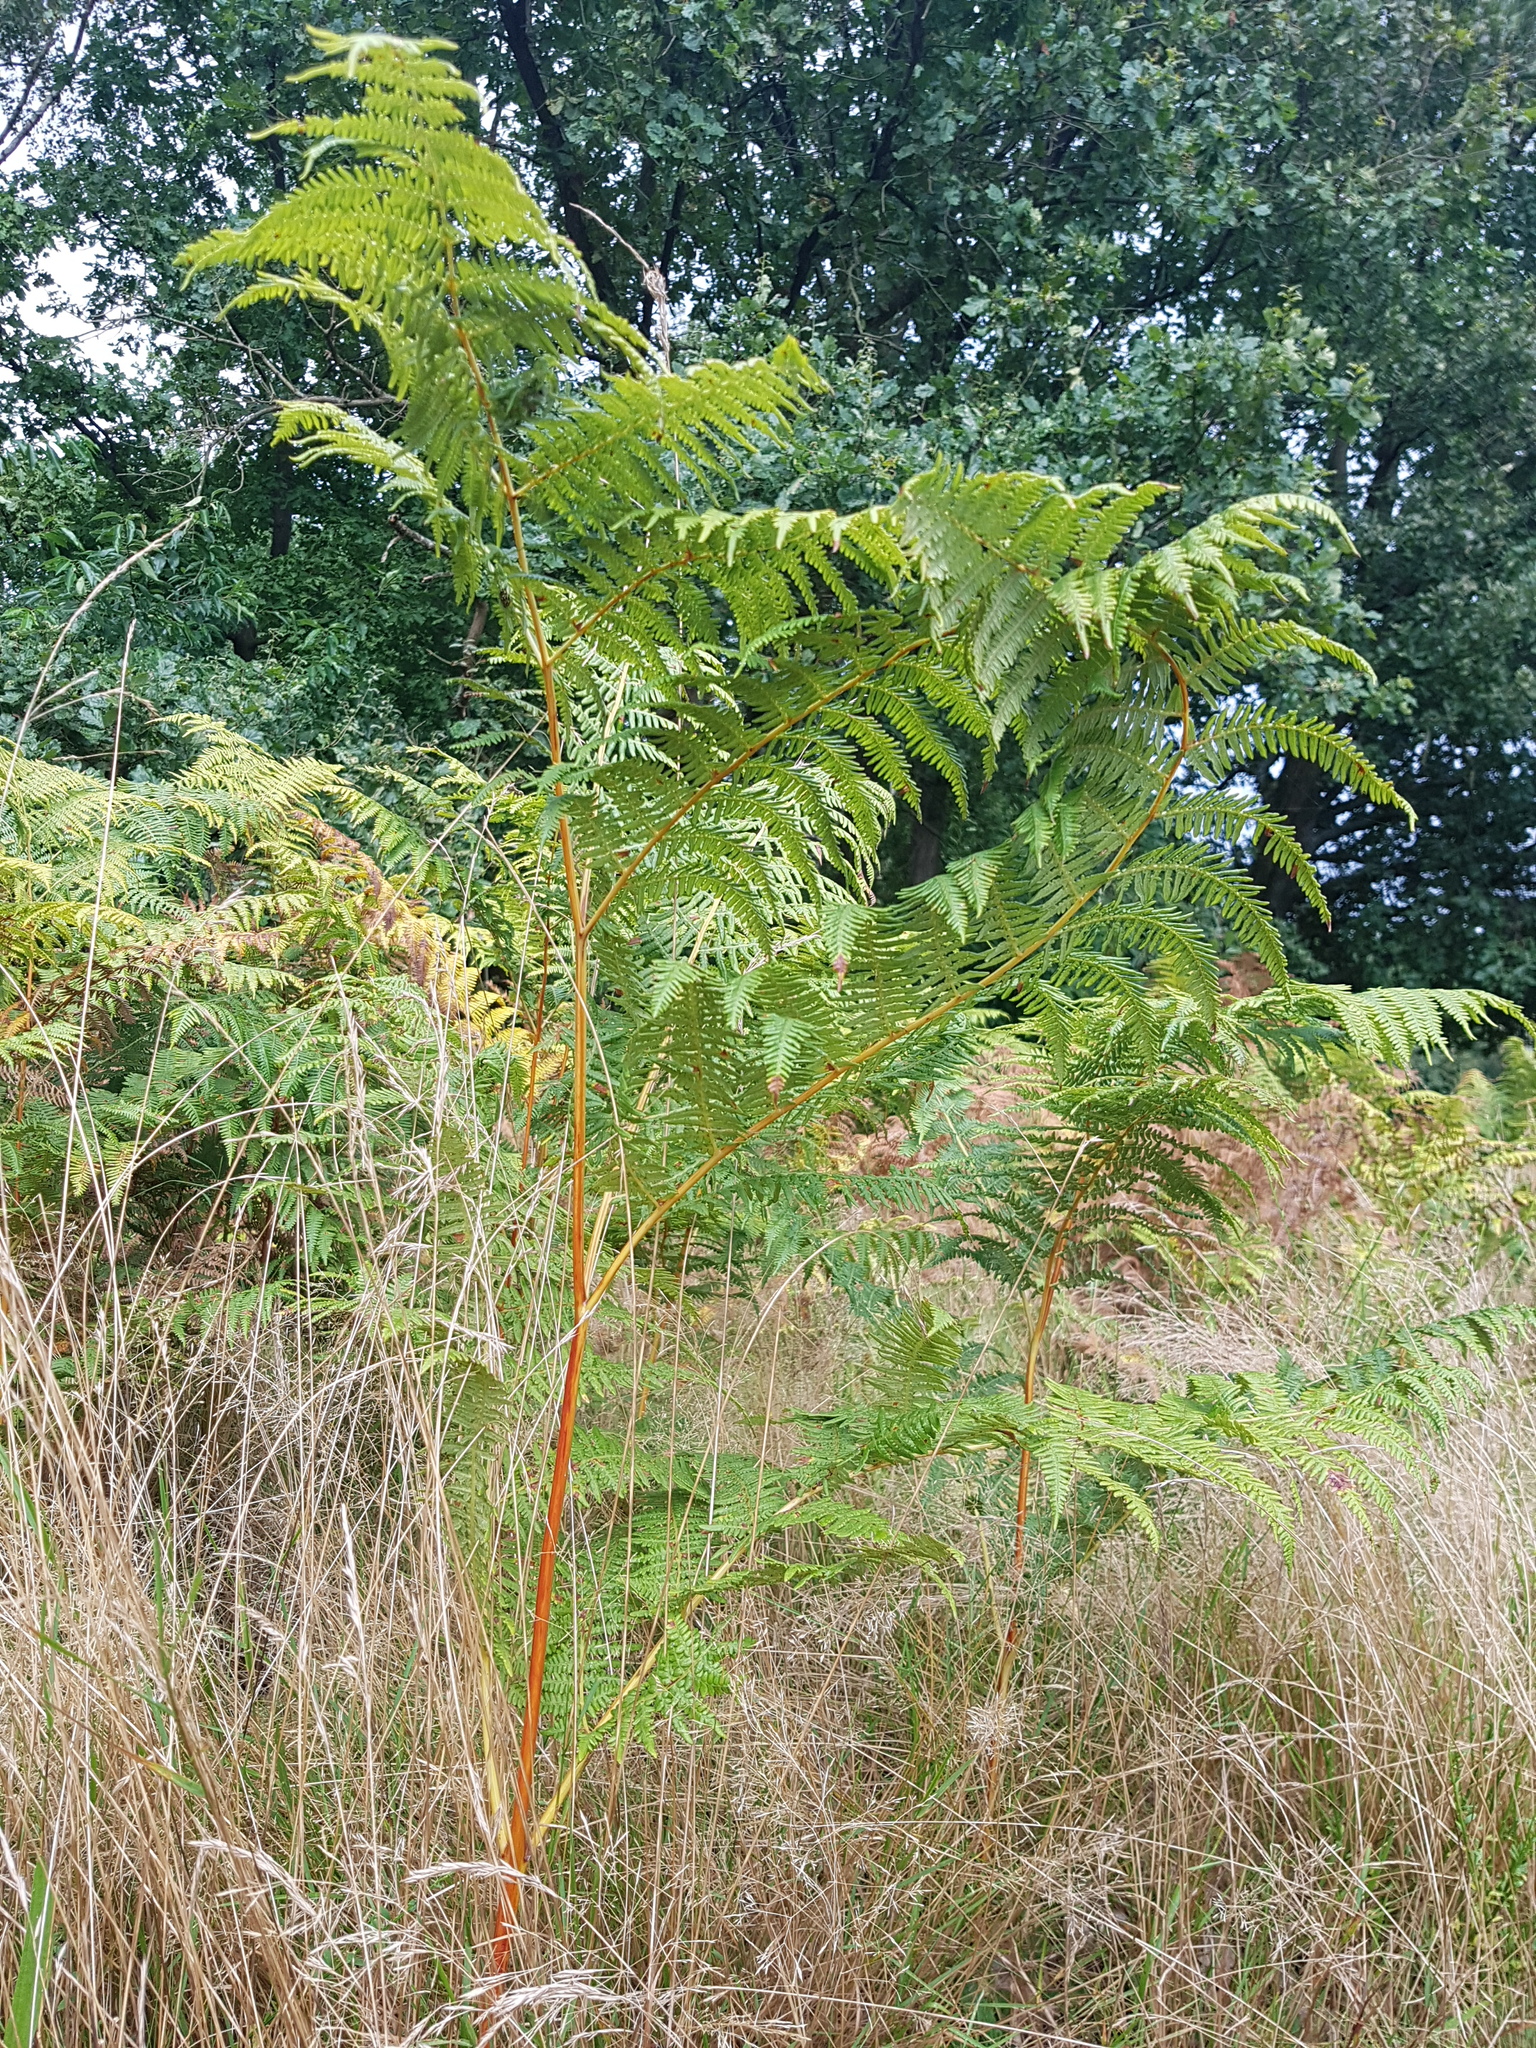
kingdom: Plantae
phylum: Tracheophyta
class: Polypodiopsida
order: Polypodiales
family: Dennstaedtiaceae
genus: Pteridium
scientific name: Pteridium aquilinum
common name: Bracken
